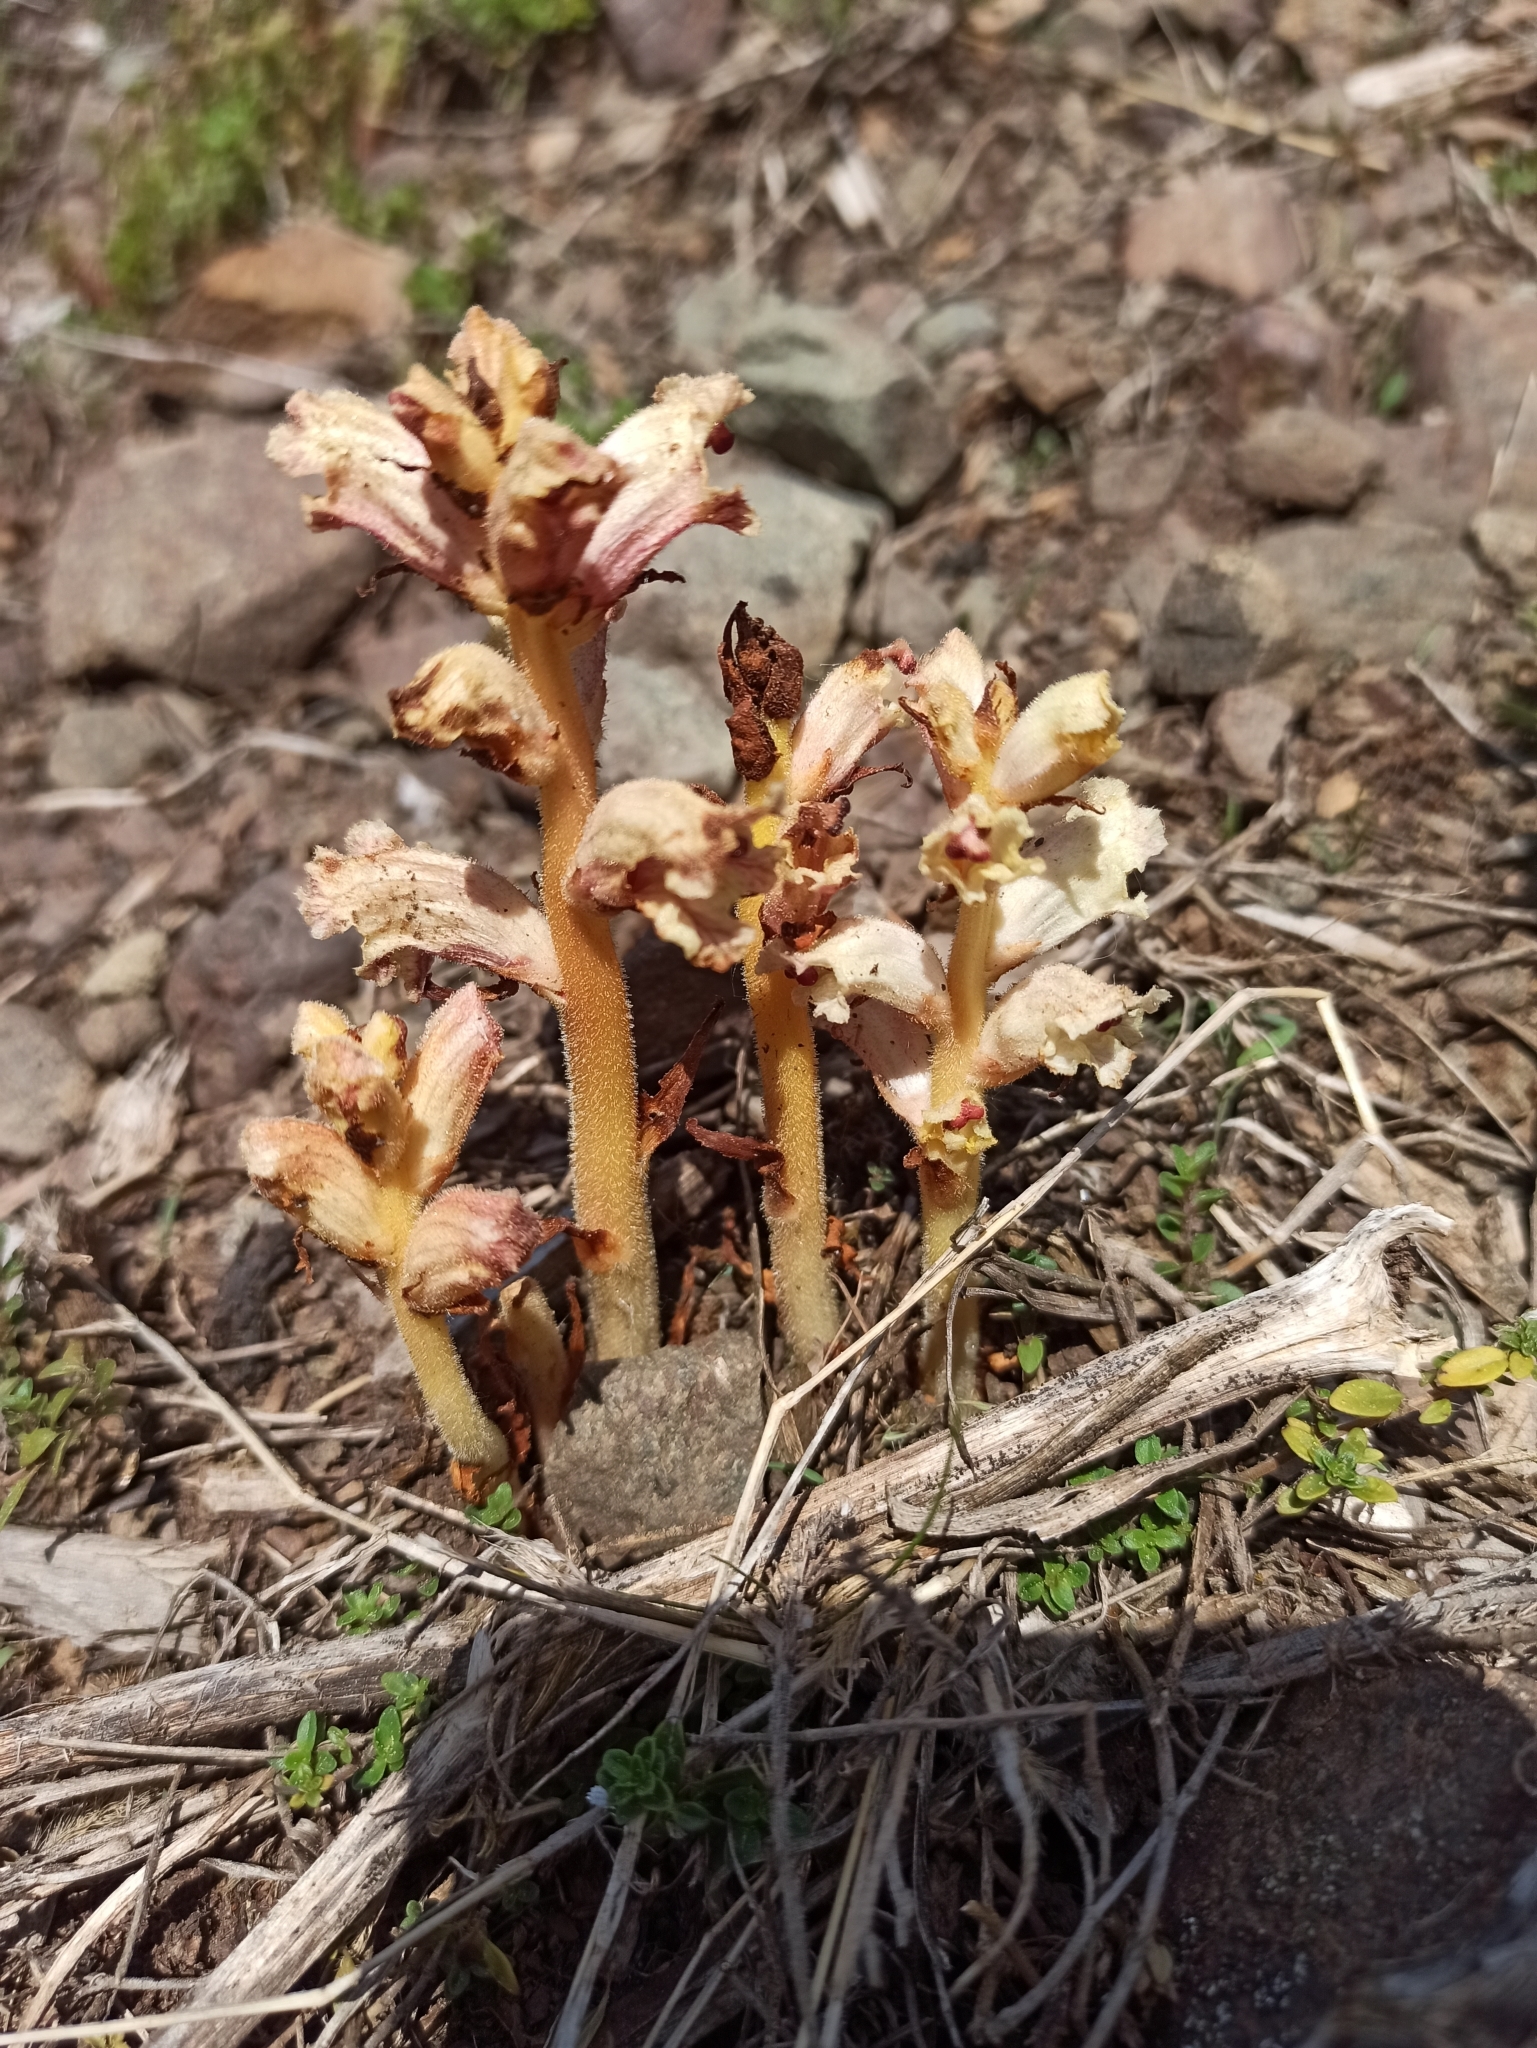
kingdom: Plantae
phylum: Tracheophyta
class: Magnoliopsida
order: Lamiales
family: Orobanchaceae
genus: Orobanche
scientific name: Orobanche alba
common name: Thyme broomrape
